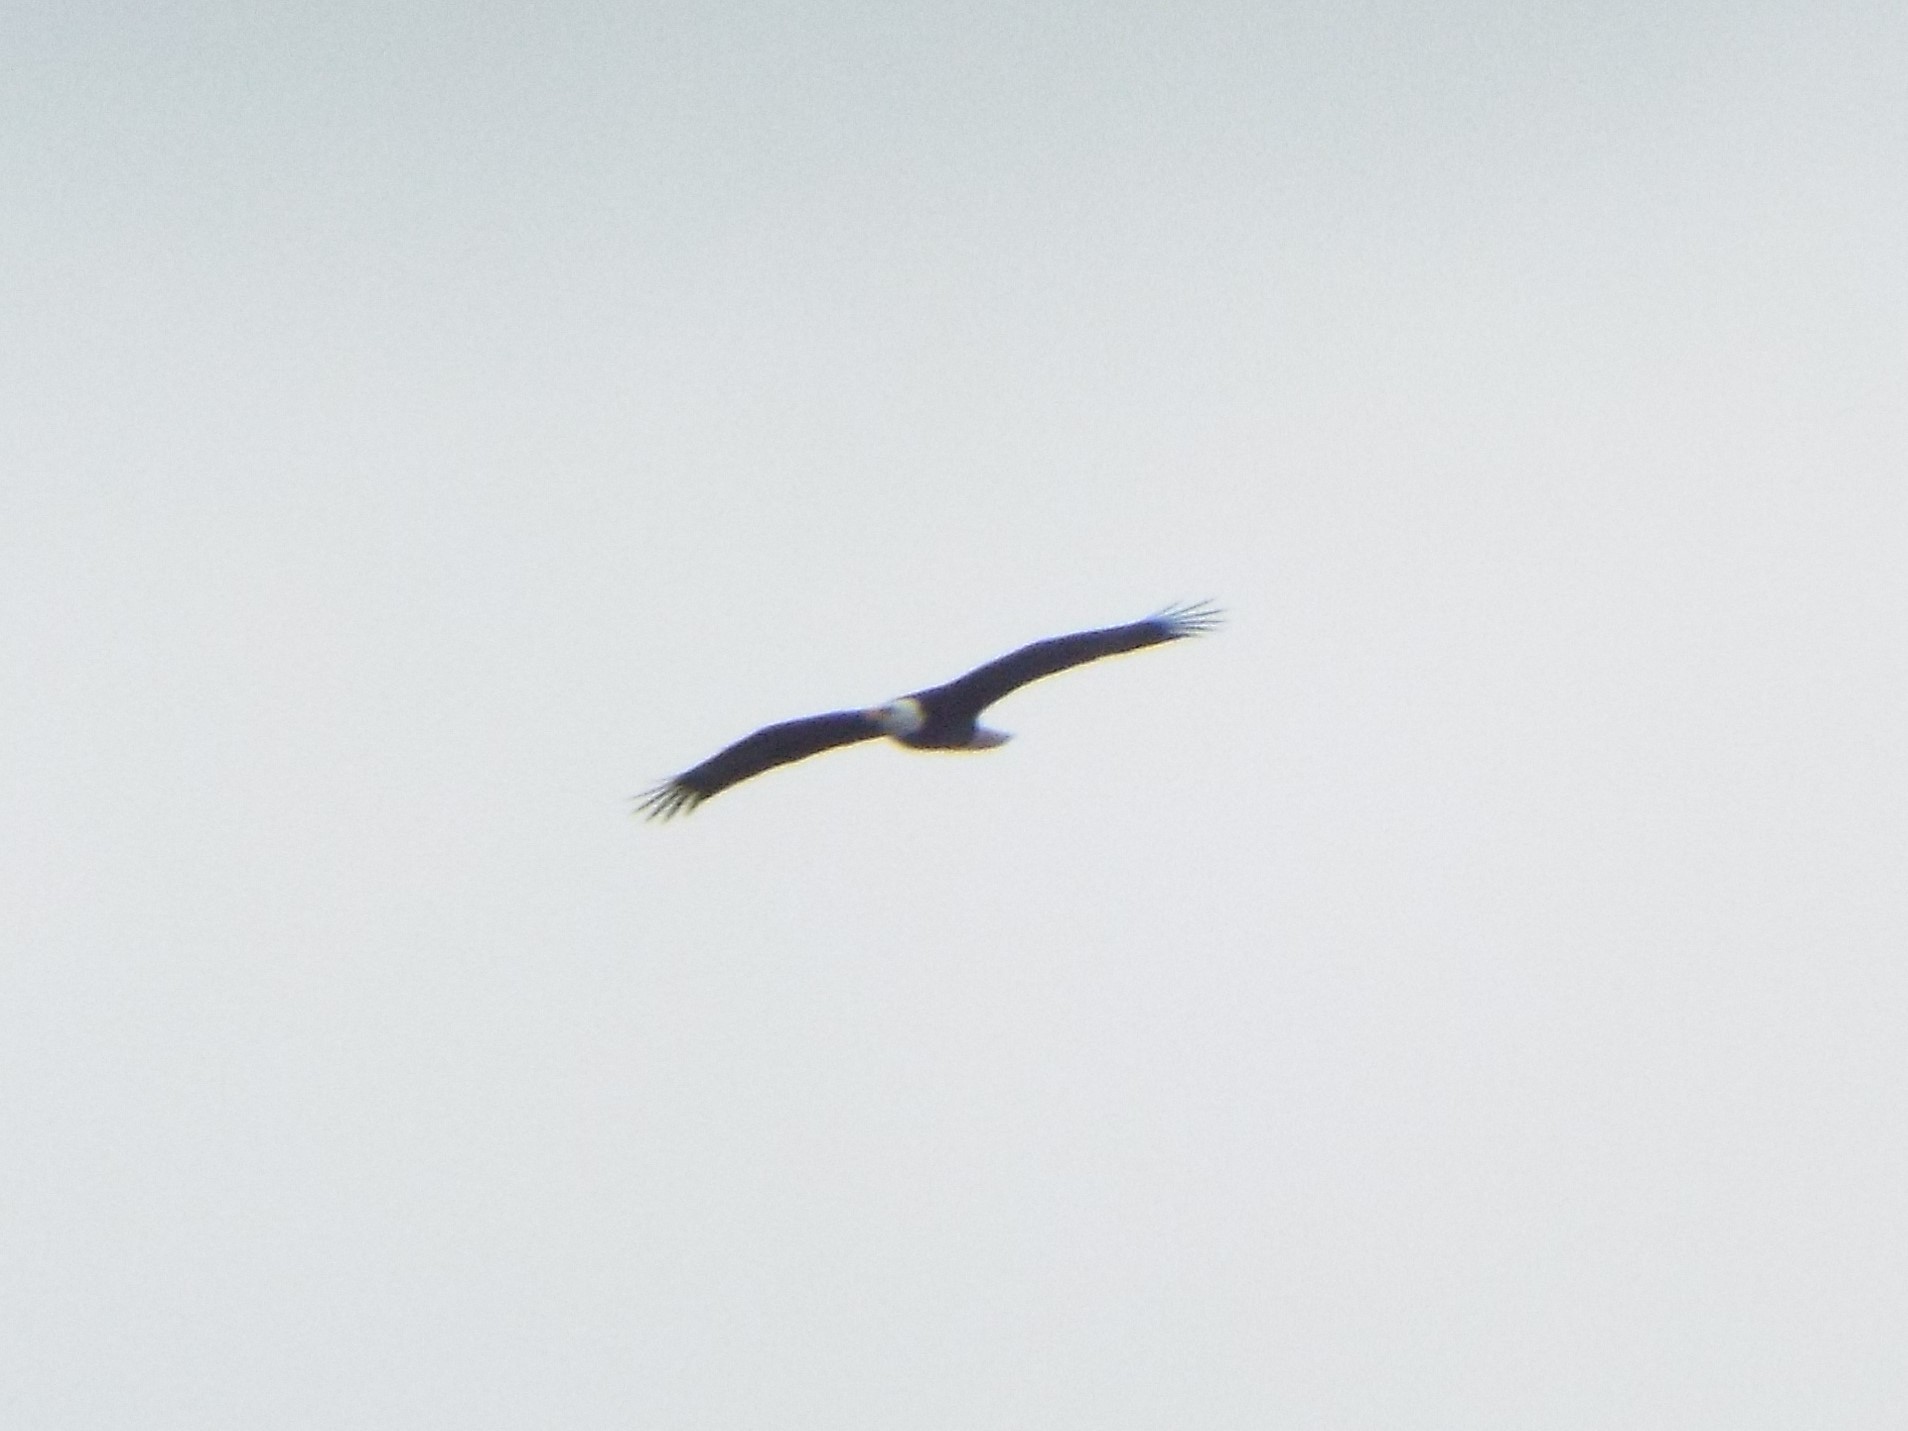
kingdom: Animalia
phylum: Chordata
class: Aves
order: Accipitriformes
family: Accipitridae
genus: Haliaeetus
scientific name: Haliaeetus leucocephalus
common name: Bald eagle
